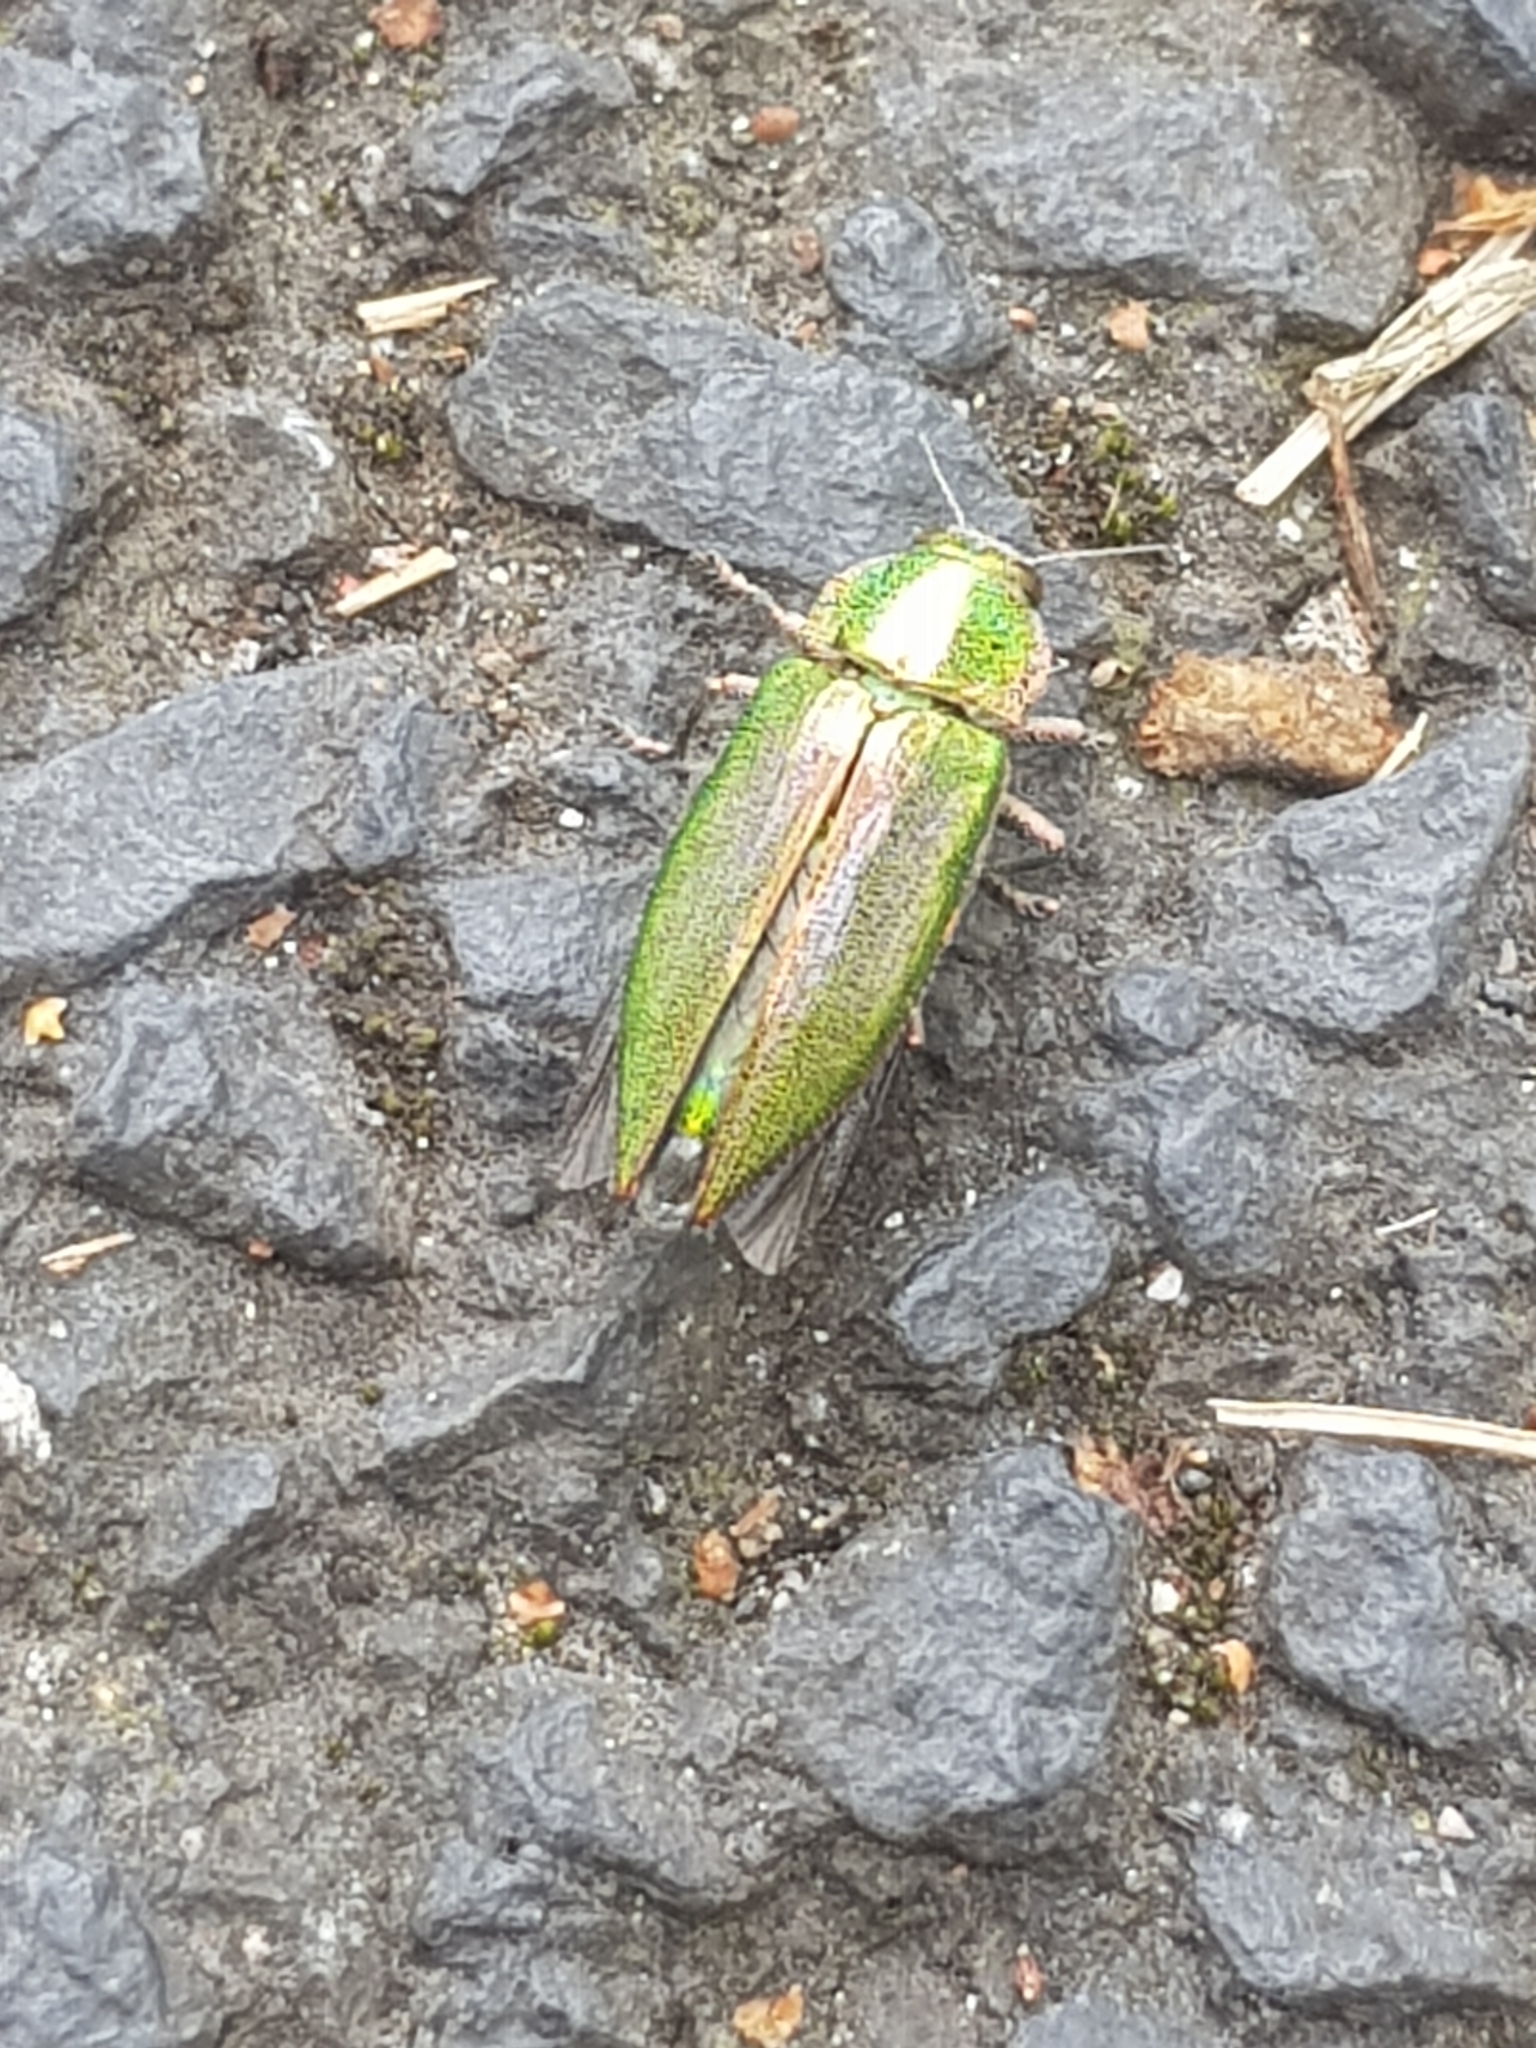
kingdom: Animalia
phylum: Arthropoda
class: Insecta
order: Coleoptera
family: Buprestidae
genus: Latipalpis
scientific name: Latipalpis plana
